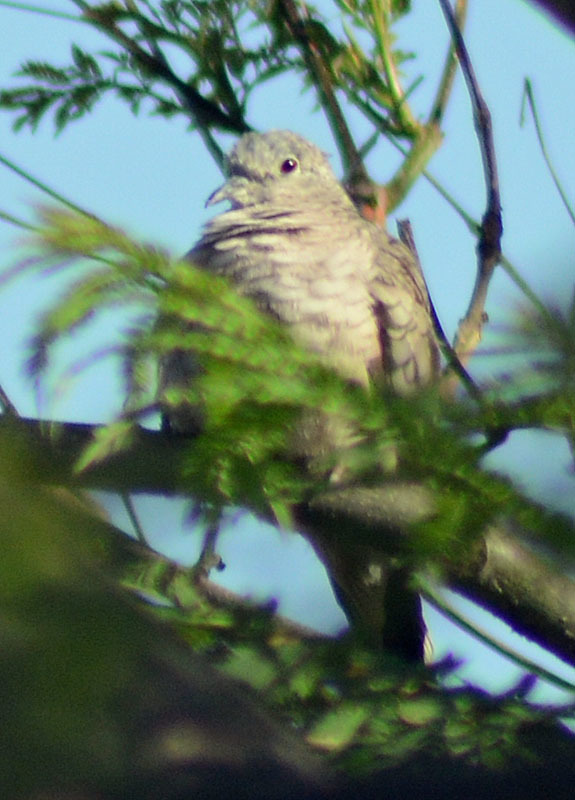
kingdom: Animalia
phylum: Chordata
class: Aves
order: Columbiformes
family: Columbidae
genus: Columbina
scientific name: Columbina inca
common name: Inca dove
